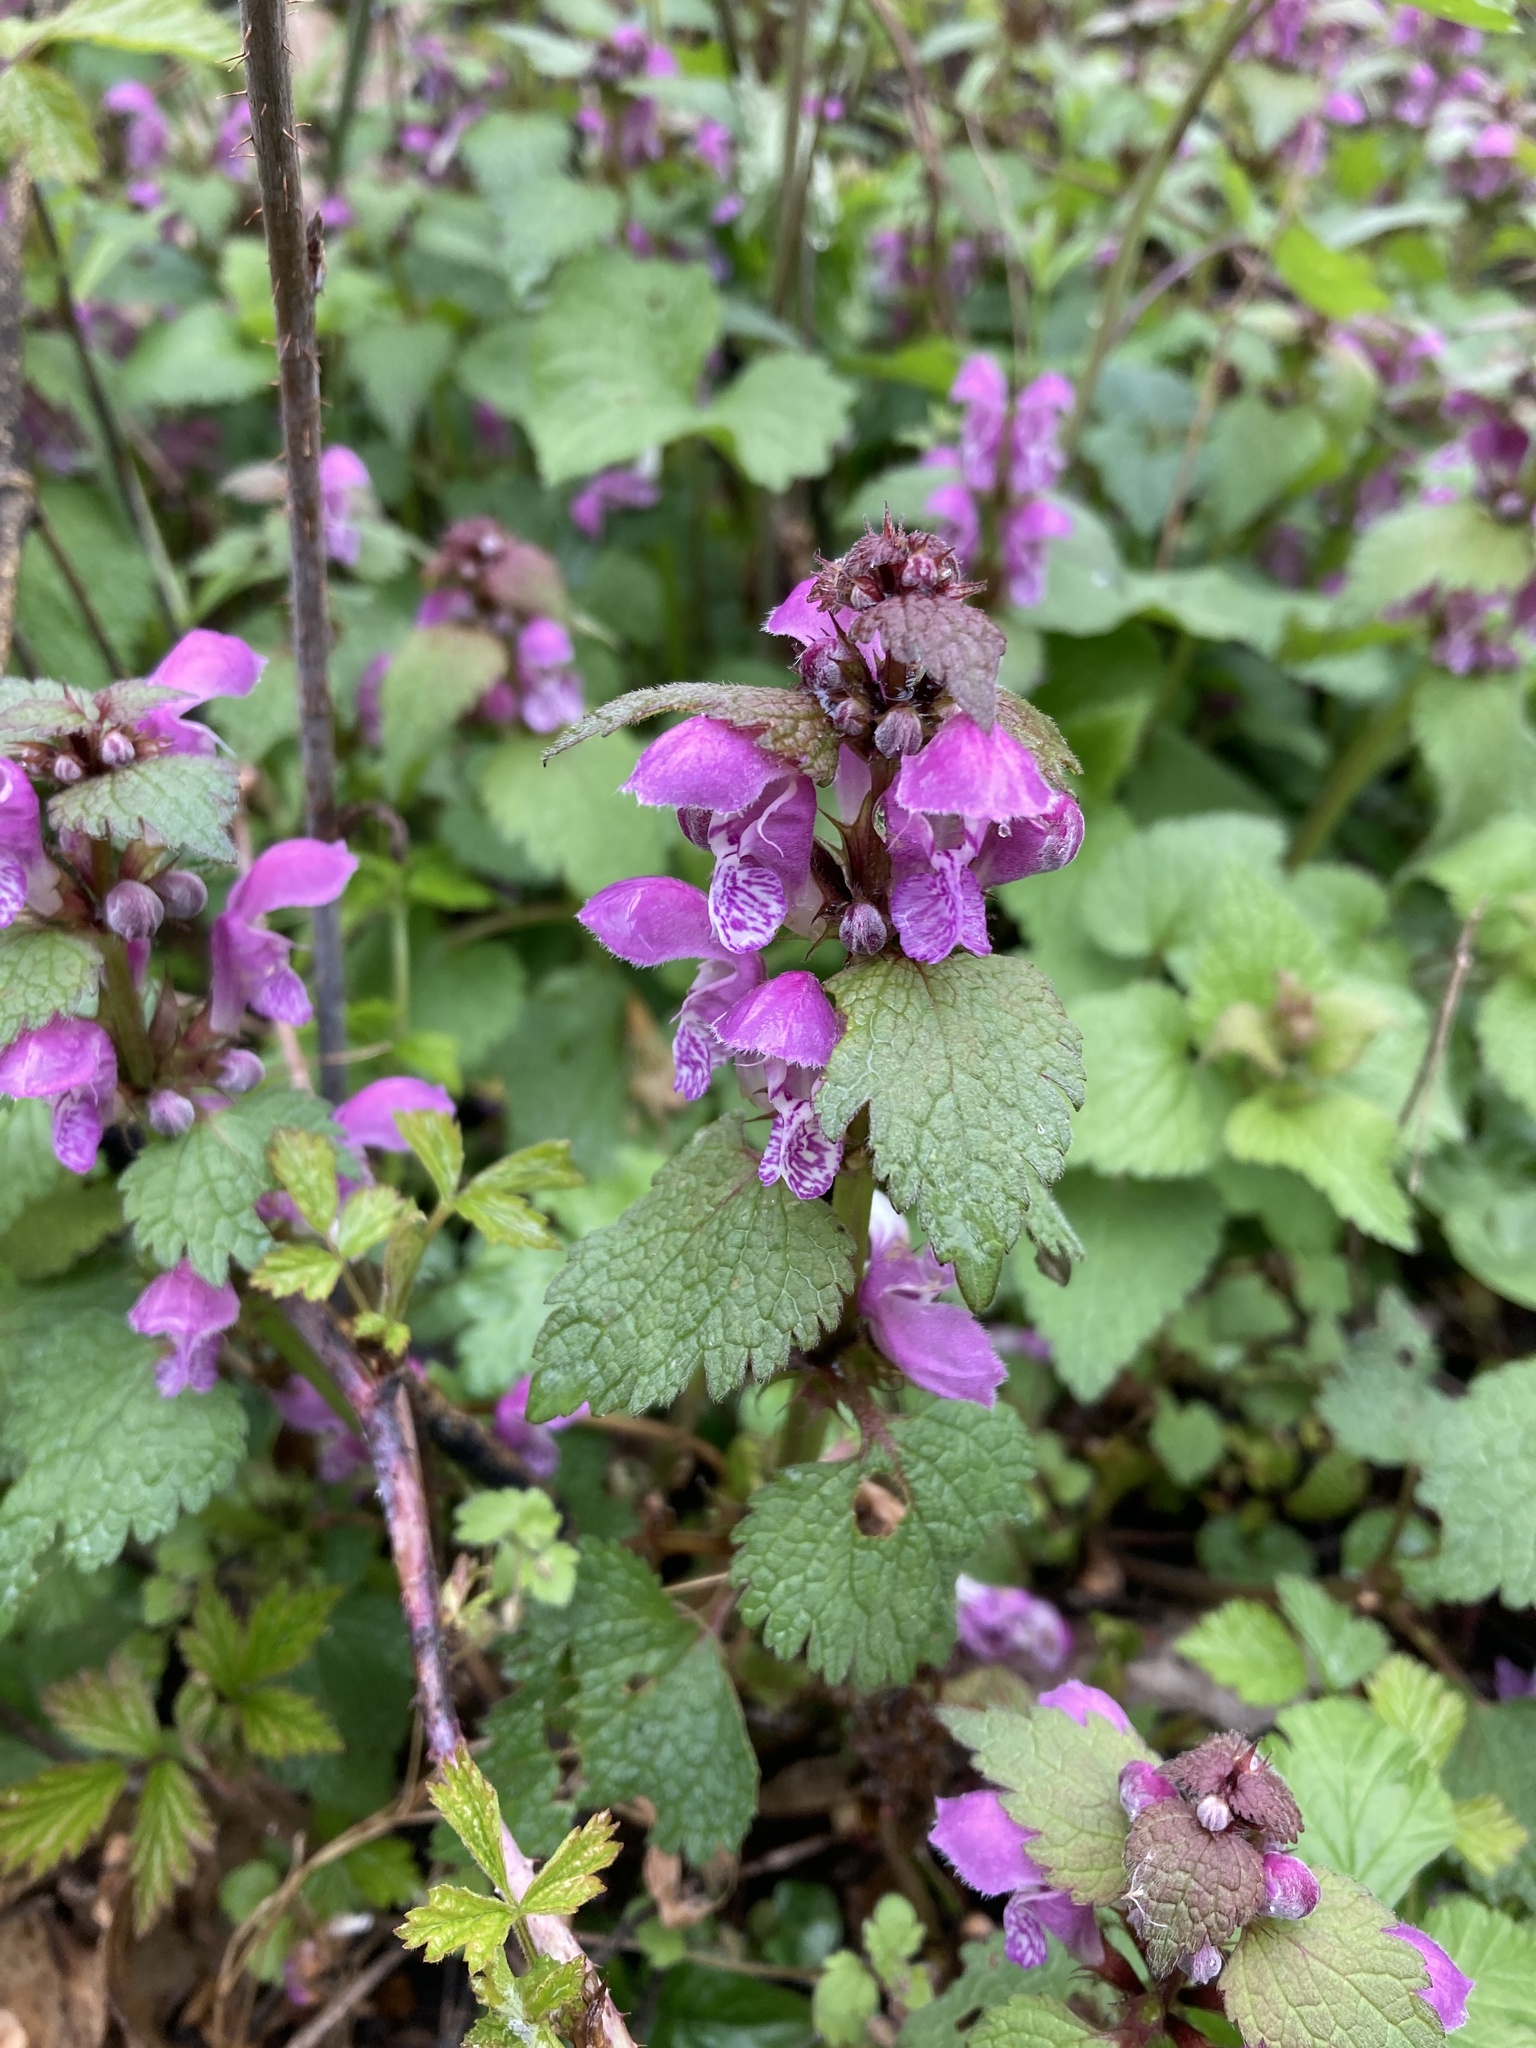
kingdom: Plantae
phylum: Tracheophyta
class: Magnoliopsida
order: Lamiales
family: Lamiaceae
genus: Lamium
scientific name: Lamium maculatum
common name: Spotted dead-nettle
